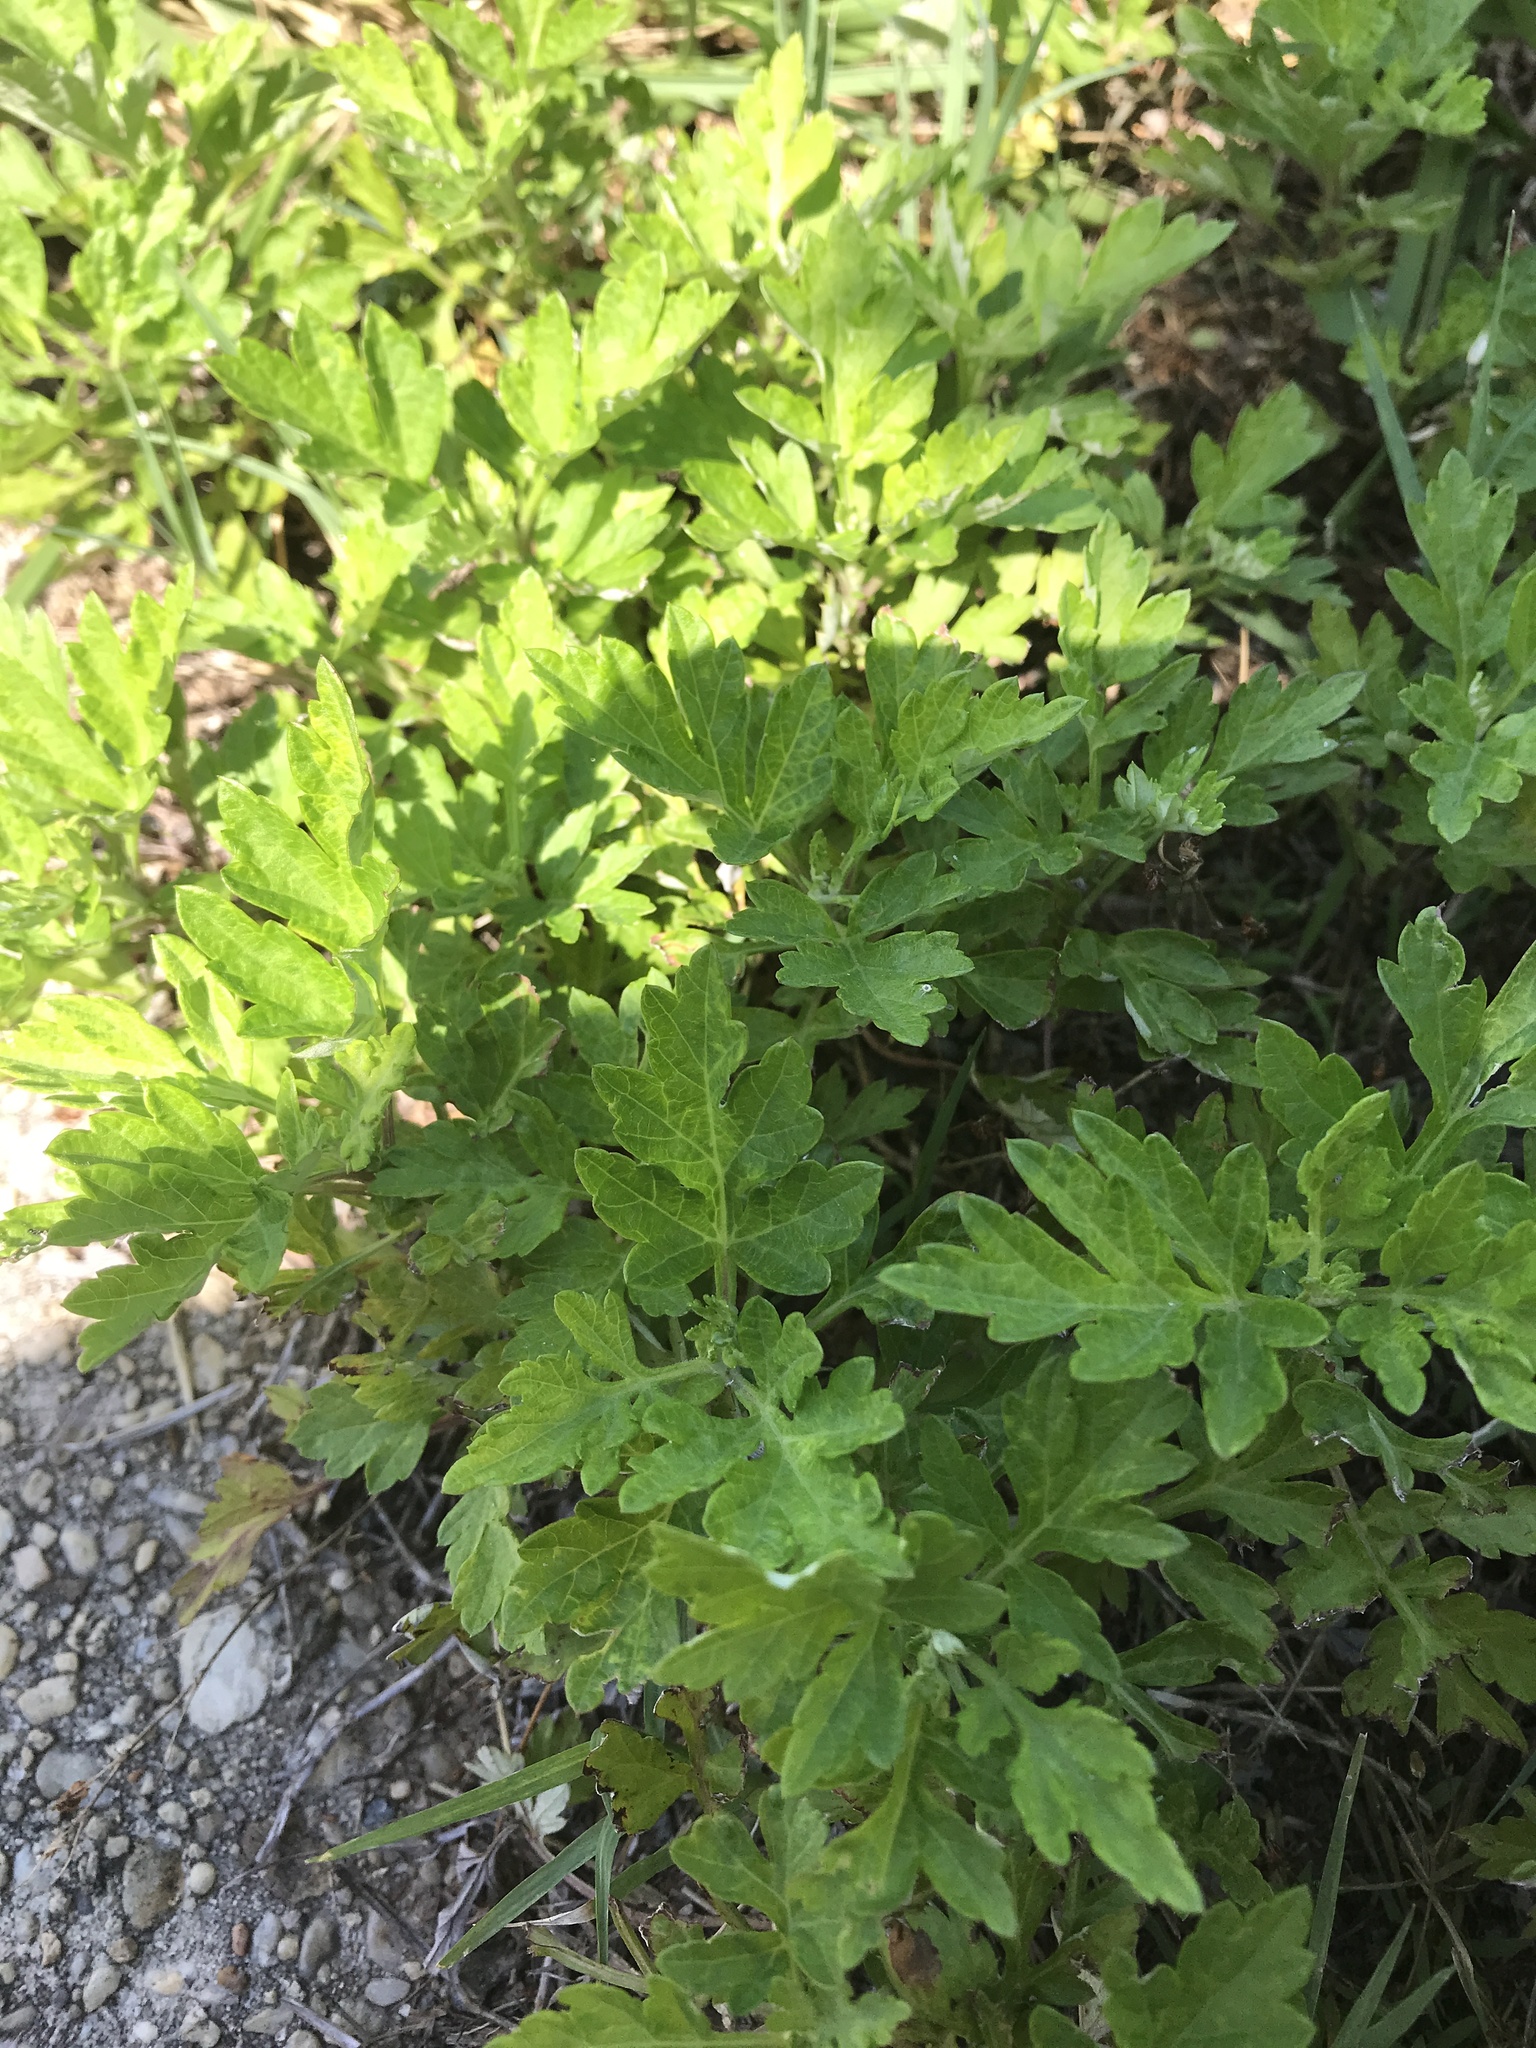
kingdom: Plantae
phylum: Tracheophyta
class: Magnoliopsida
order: Asterales
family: Asteraceae
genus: Artemisia
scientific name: Artemisia vulgaris
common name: Mugwort
